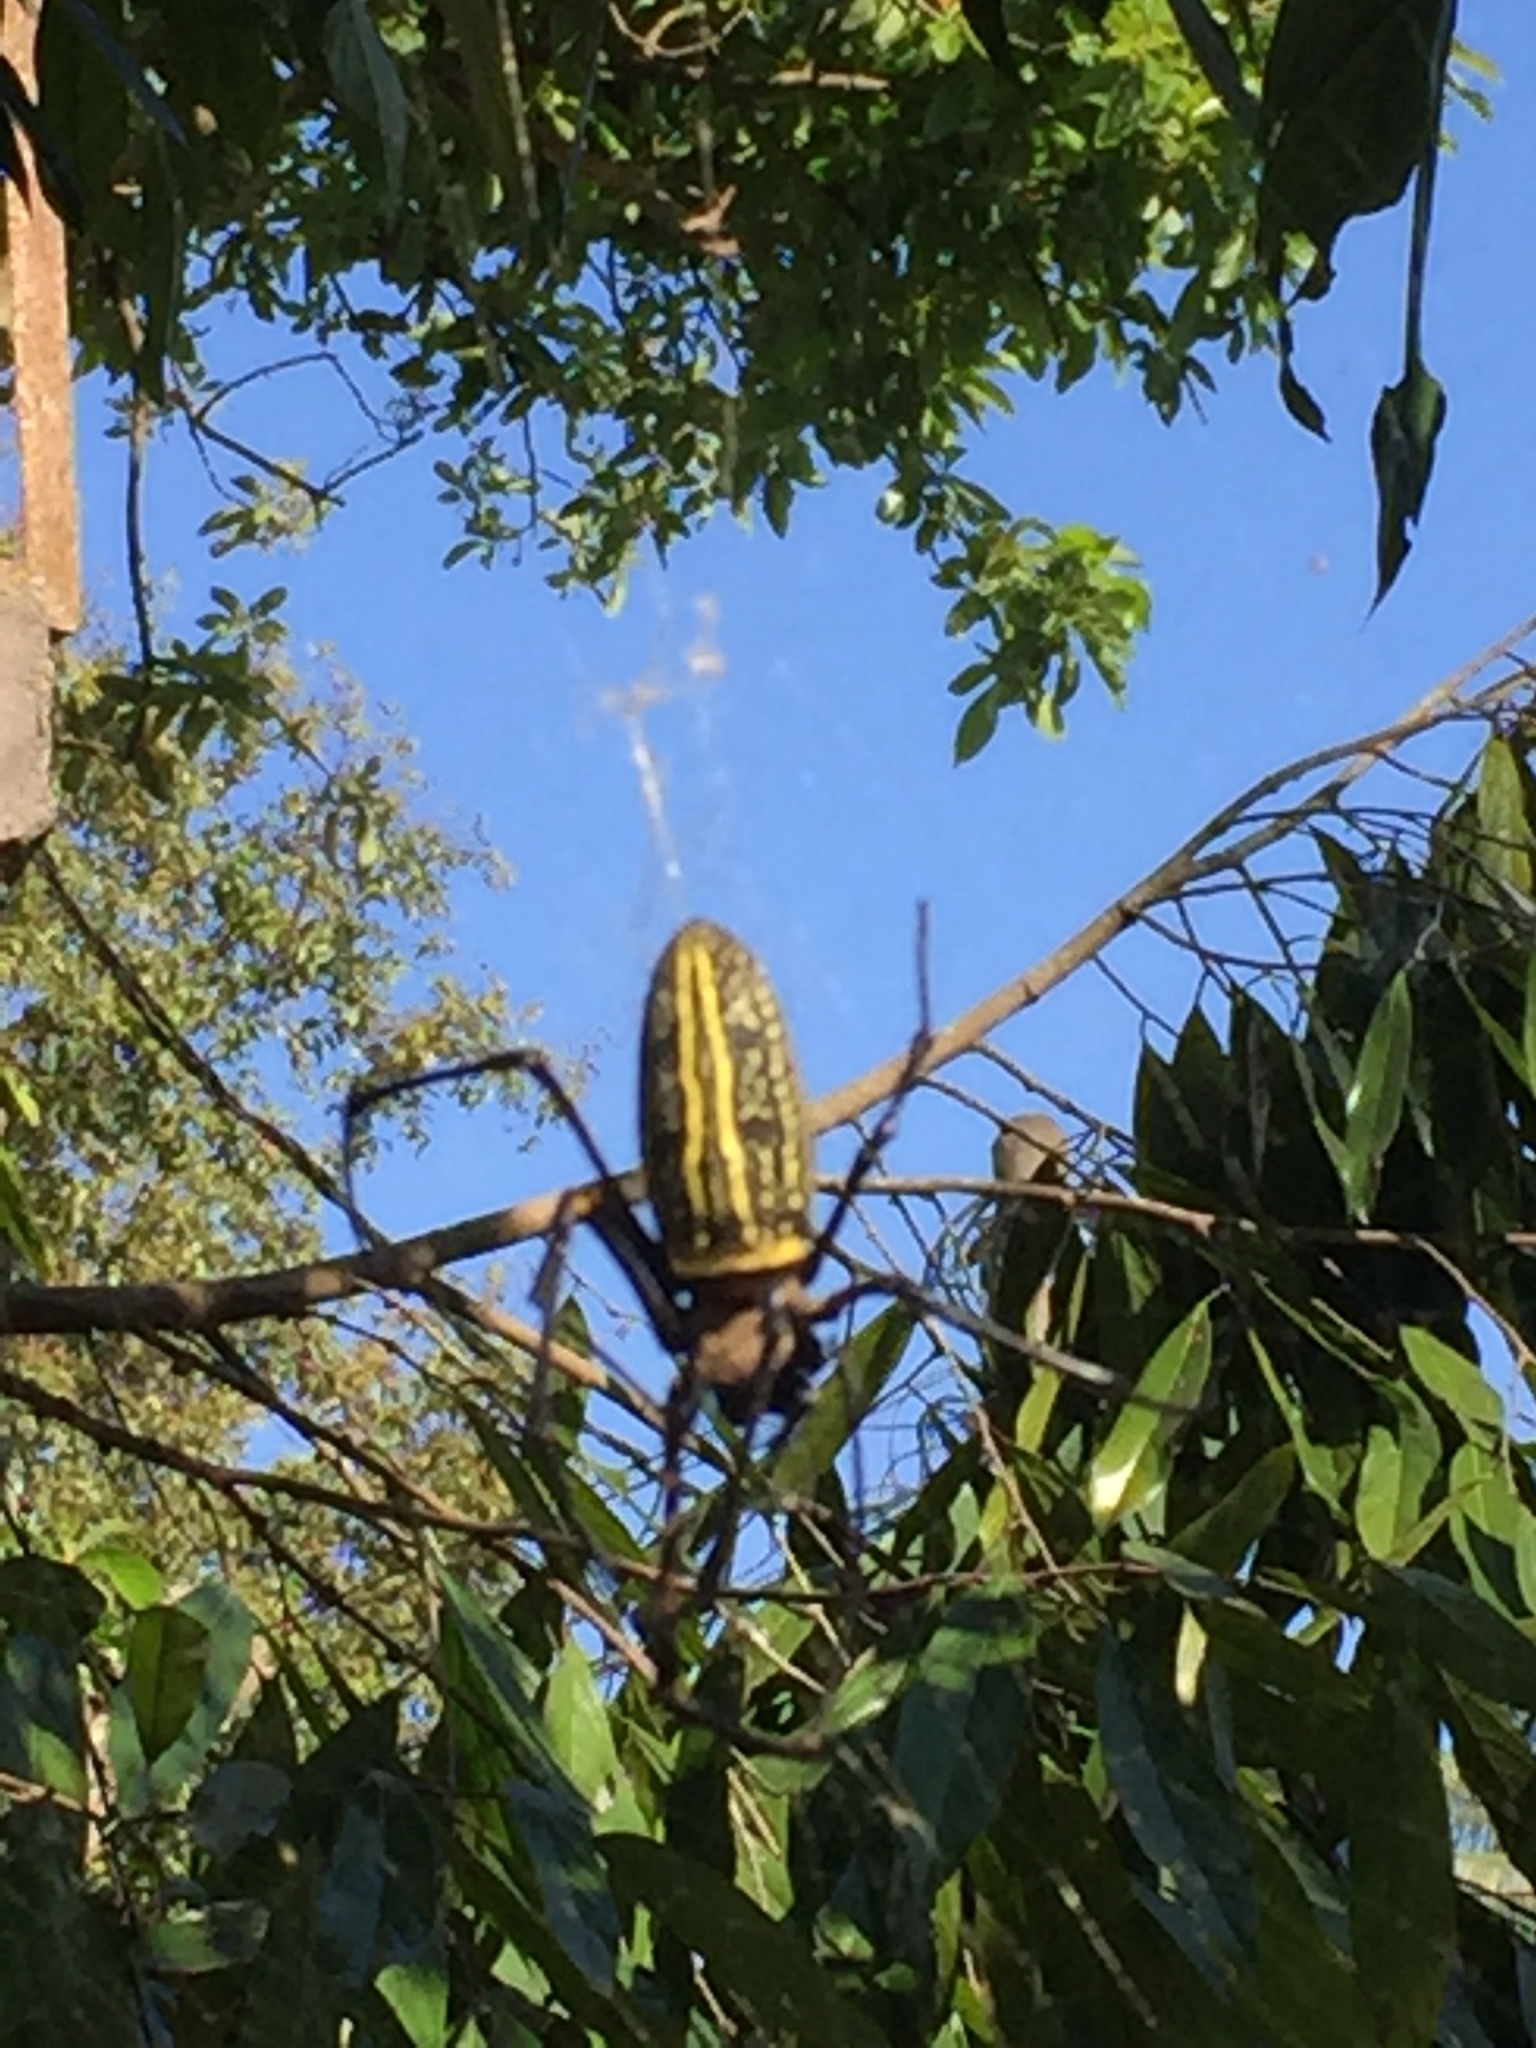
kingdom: Animalia
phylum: Arthropoda
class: Arachnida
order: Araneae
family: Araneidae
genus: Nephila
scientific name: Nephila pilipes
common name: Giant golden orb weaver
